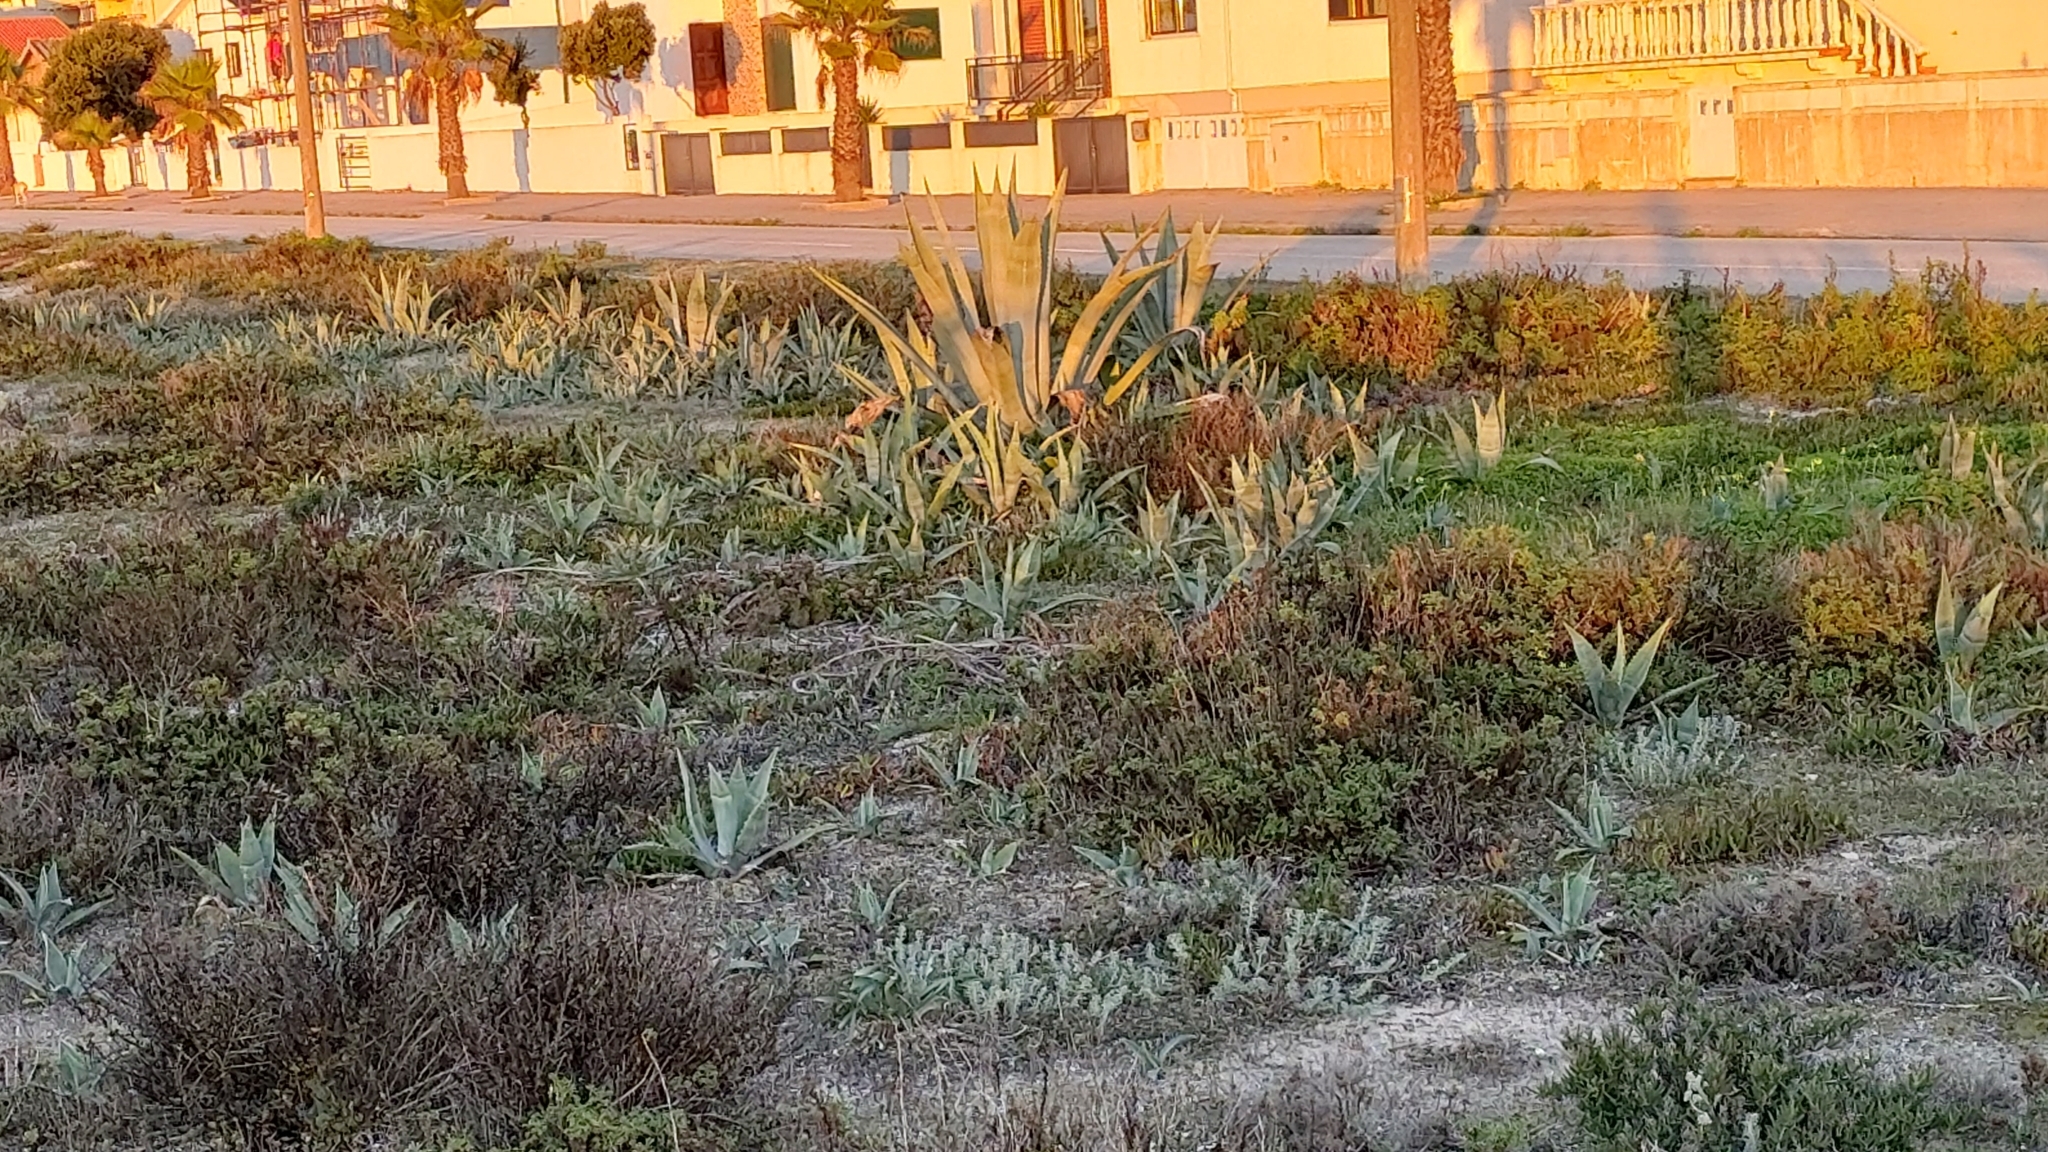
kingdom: Plantae
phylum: Tracheophyta
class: Liliopsida
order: Asparagales
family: Asparagaceae
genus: Agave
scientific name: Agave americana
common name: Centuryplant
